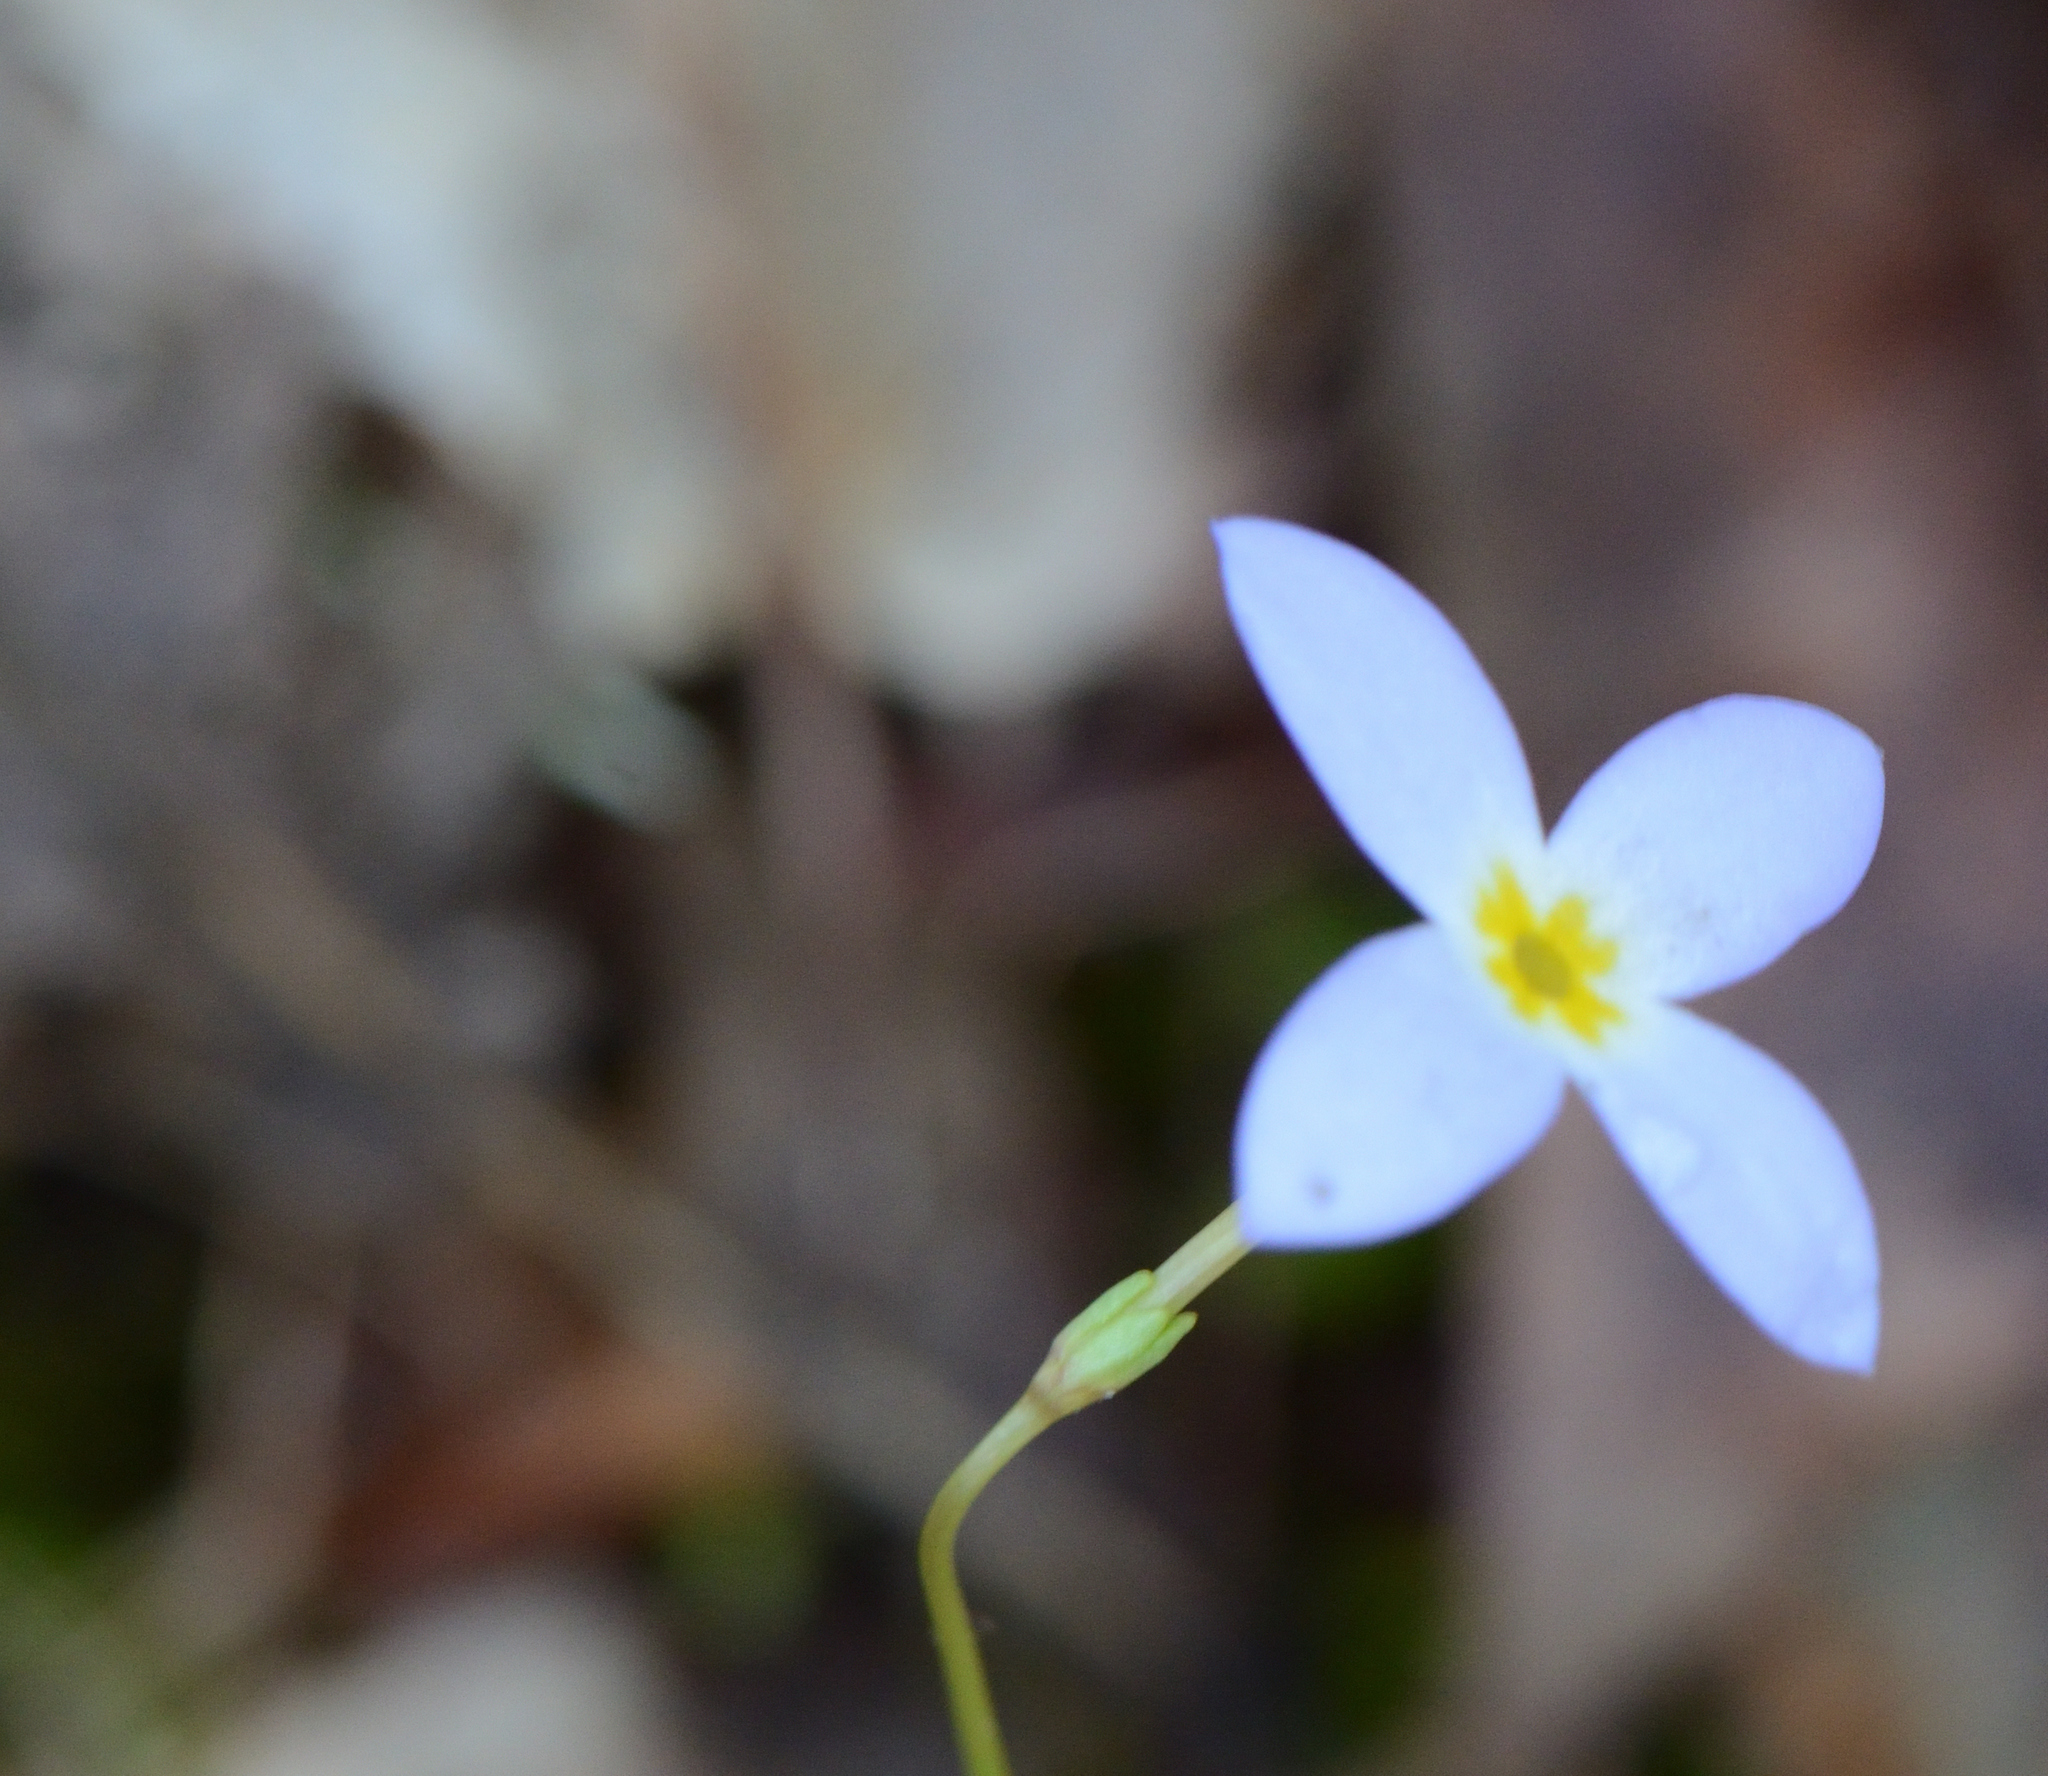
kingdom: Plantae
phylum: Tracheophyta
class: Magnoliopsida
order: Gentianales
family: Rubiaceae
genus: Houstonia
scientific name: Houstonia caerulea
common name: Bluets
